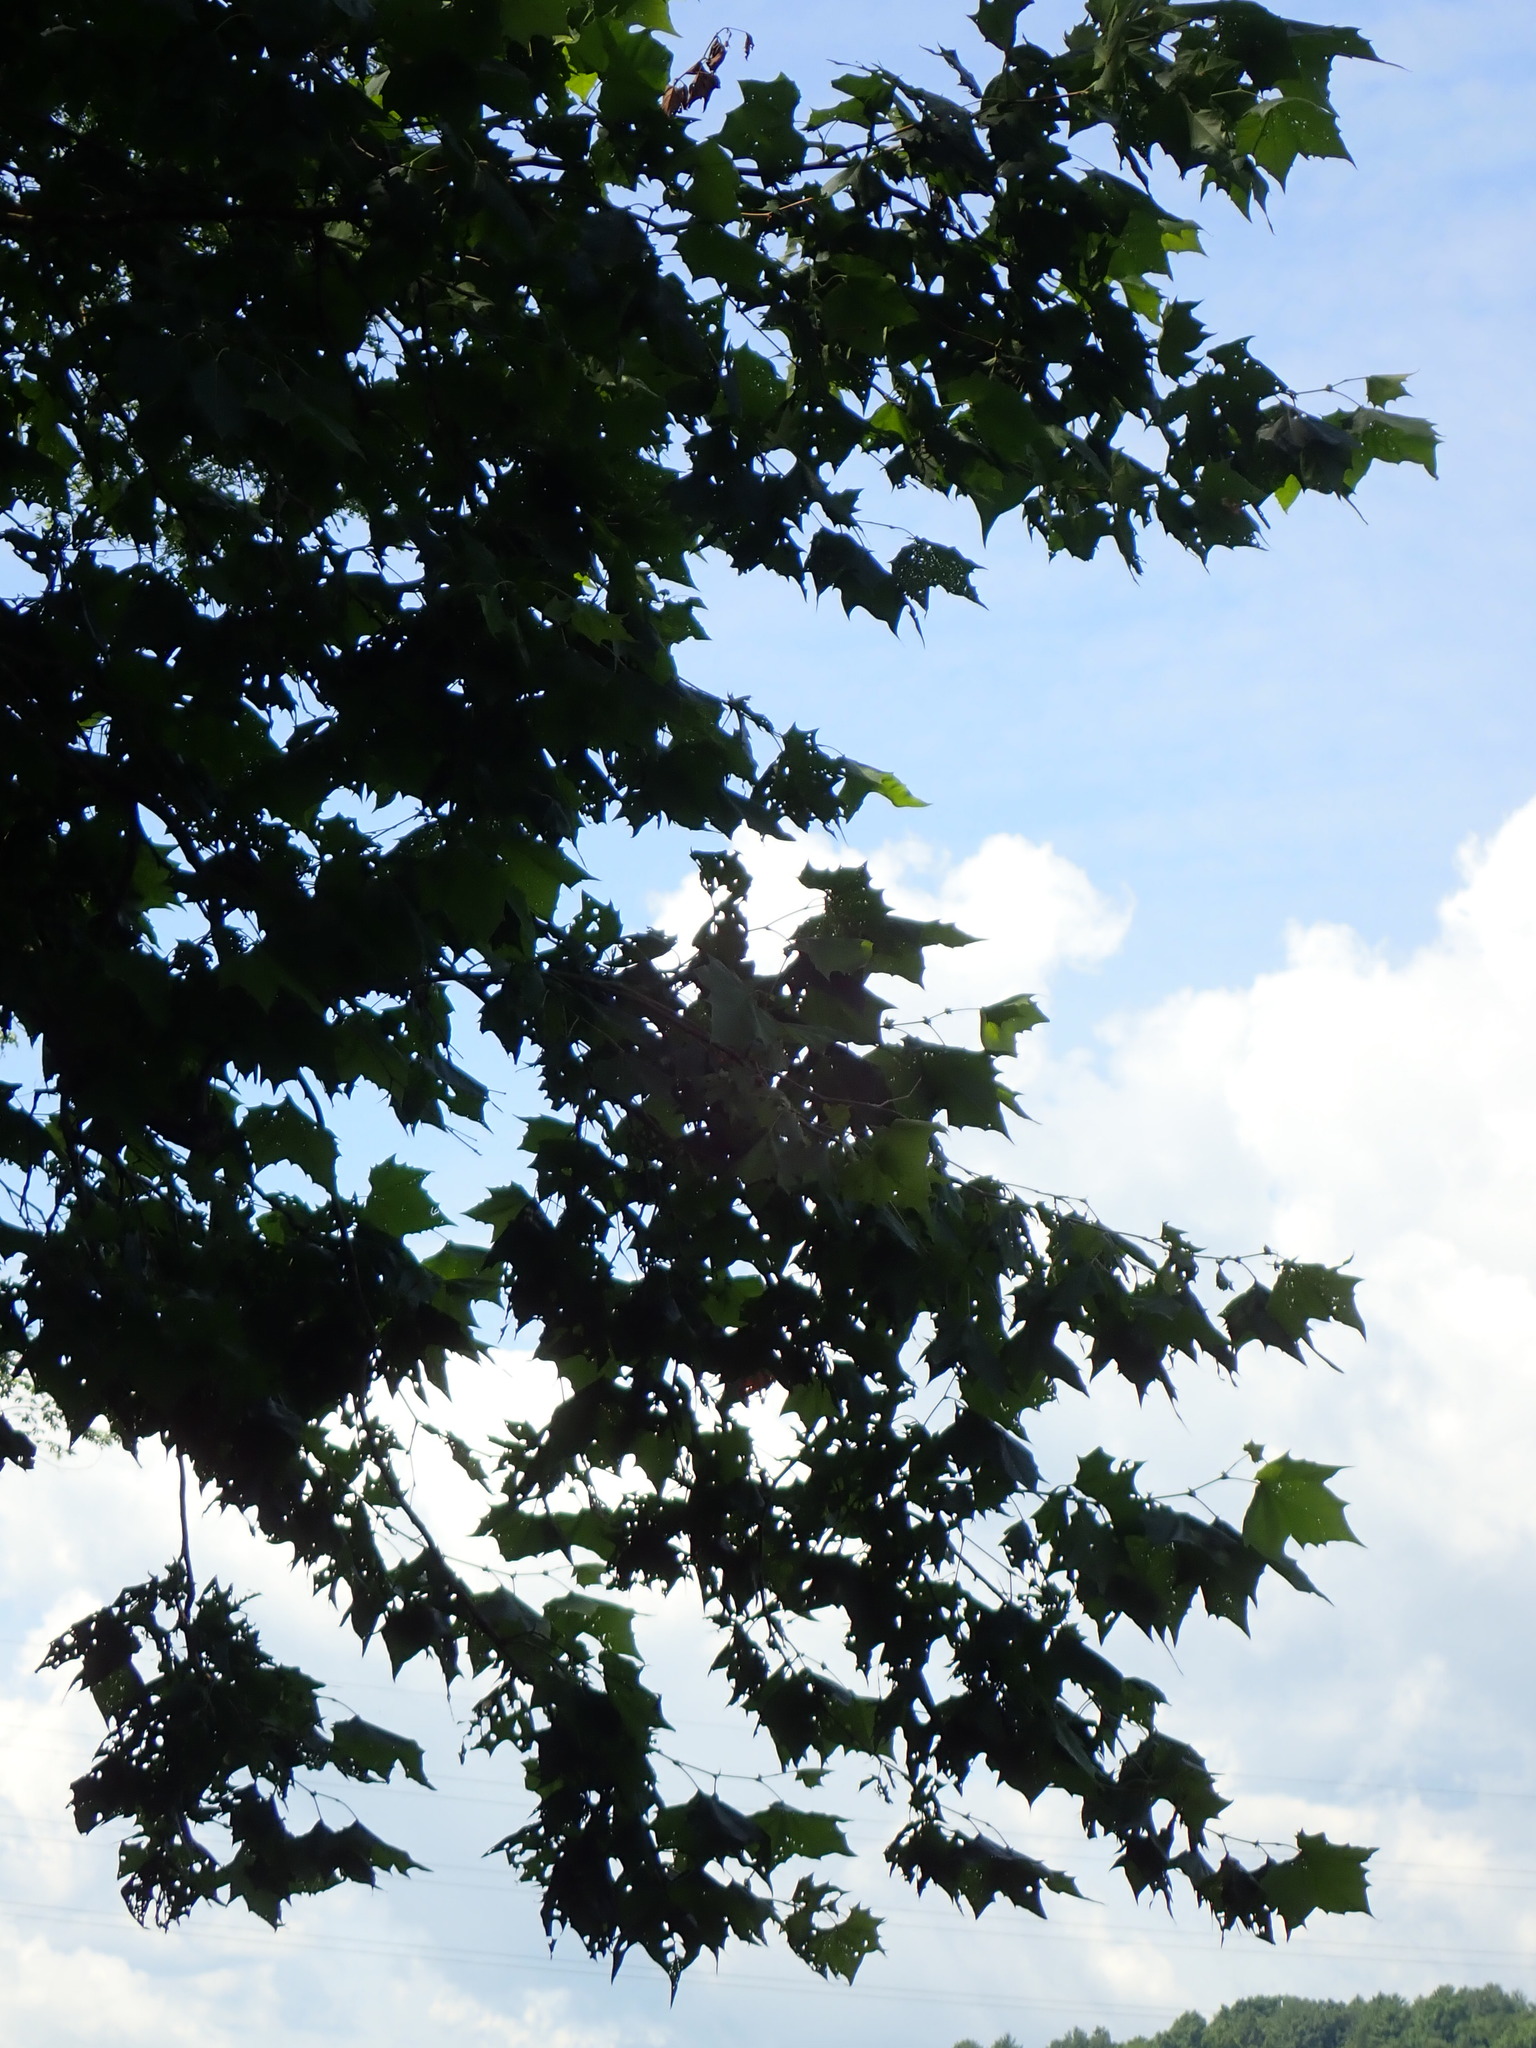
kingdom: Plantae
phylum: Tracheophyta
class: Magnoliopsida
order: Proteales
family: Platanaceae
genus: Platanus
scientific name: Platanus occidentalis
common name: American sycamore
